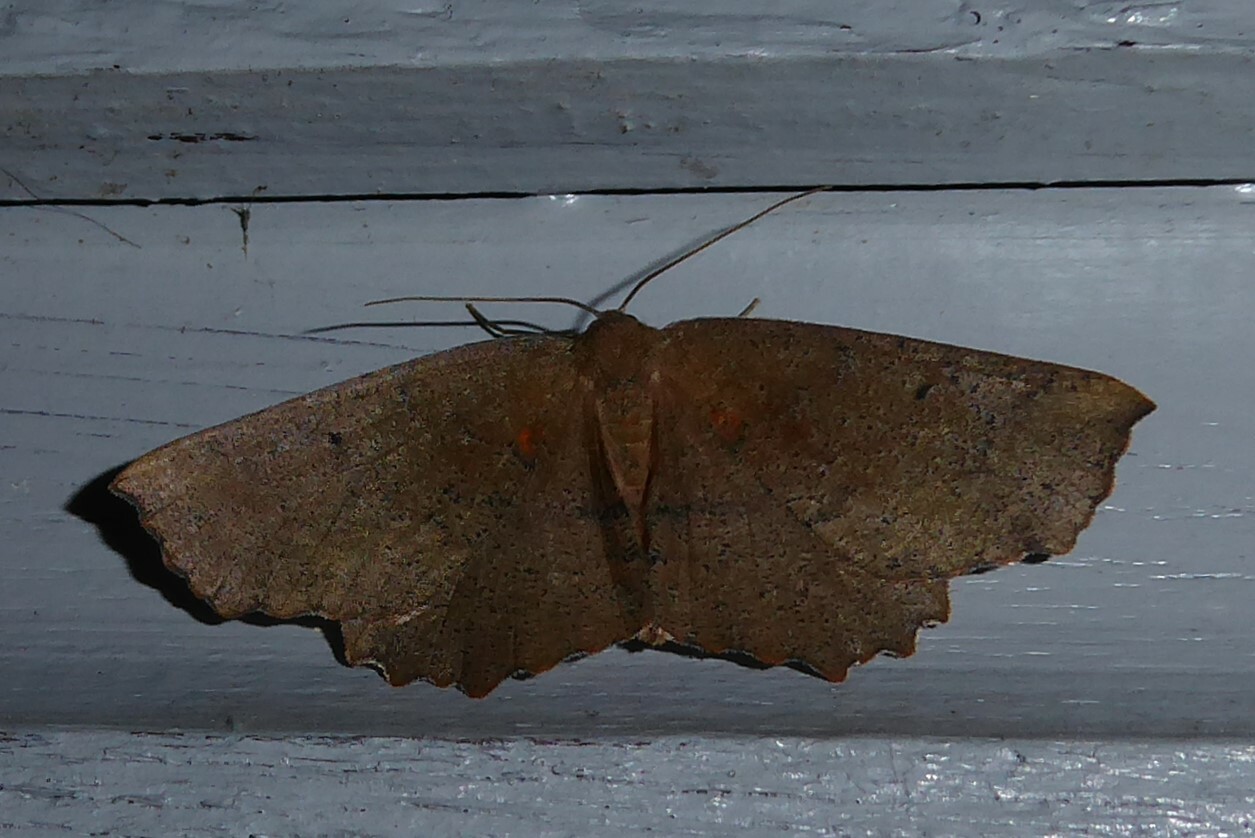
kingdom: Animalia
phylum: Arthropoda
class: Insecta
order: Lepidoptera
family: Geometridae
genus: Xyridacma
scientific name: Xyridacma ustaria
